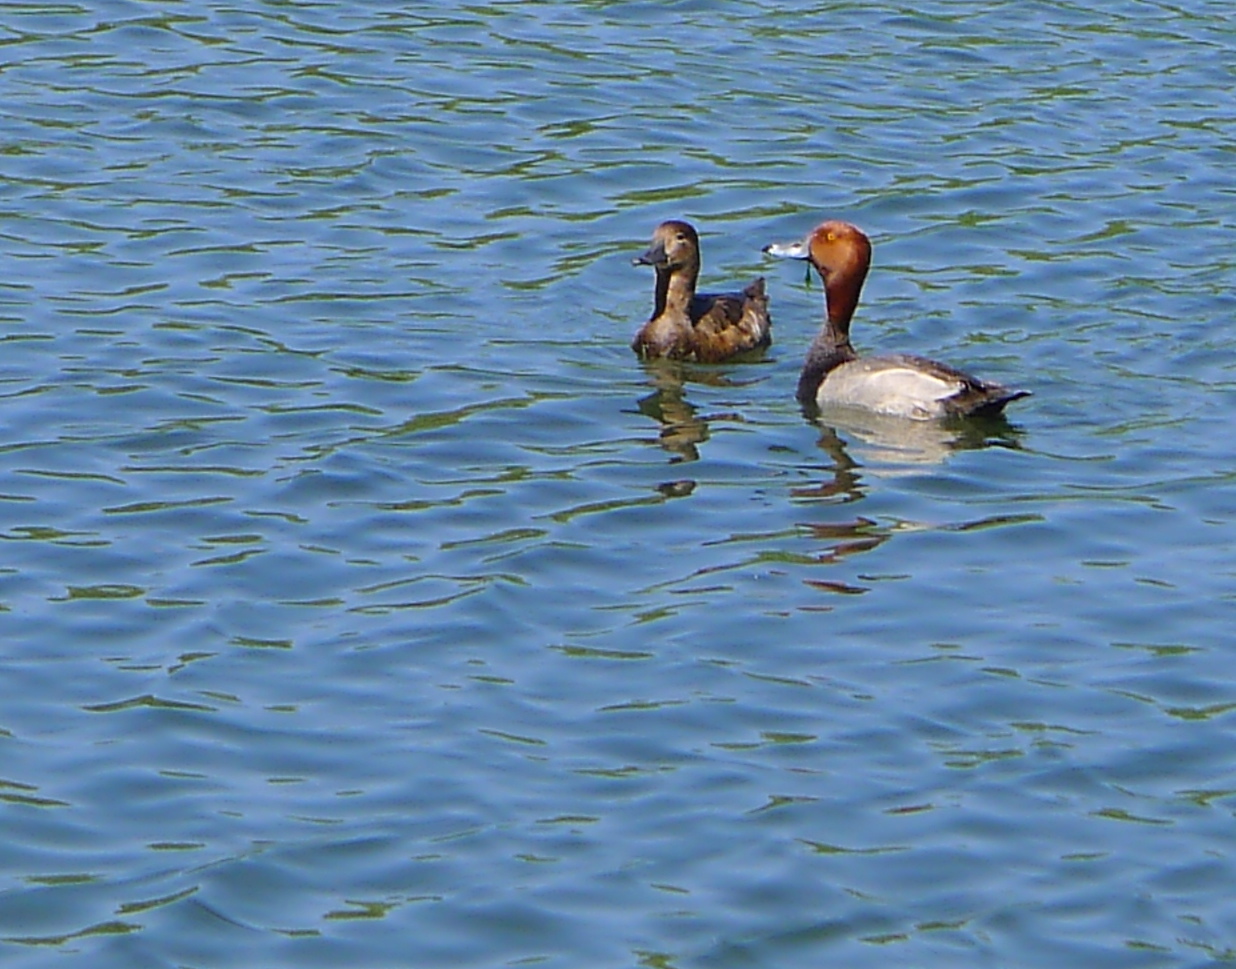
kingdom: Animalia
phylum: Chordata
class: Aves
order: Anseriformes
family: Anatidae
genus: Aythya
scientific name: Aythya americana
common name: Redhead
